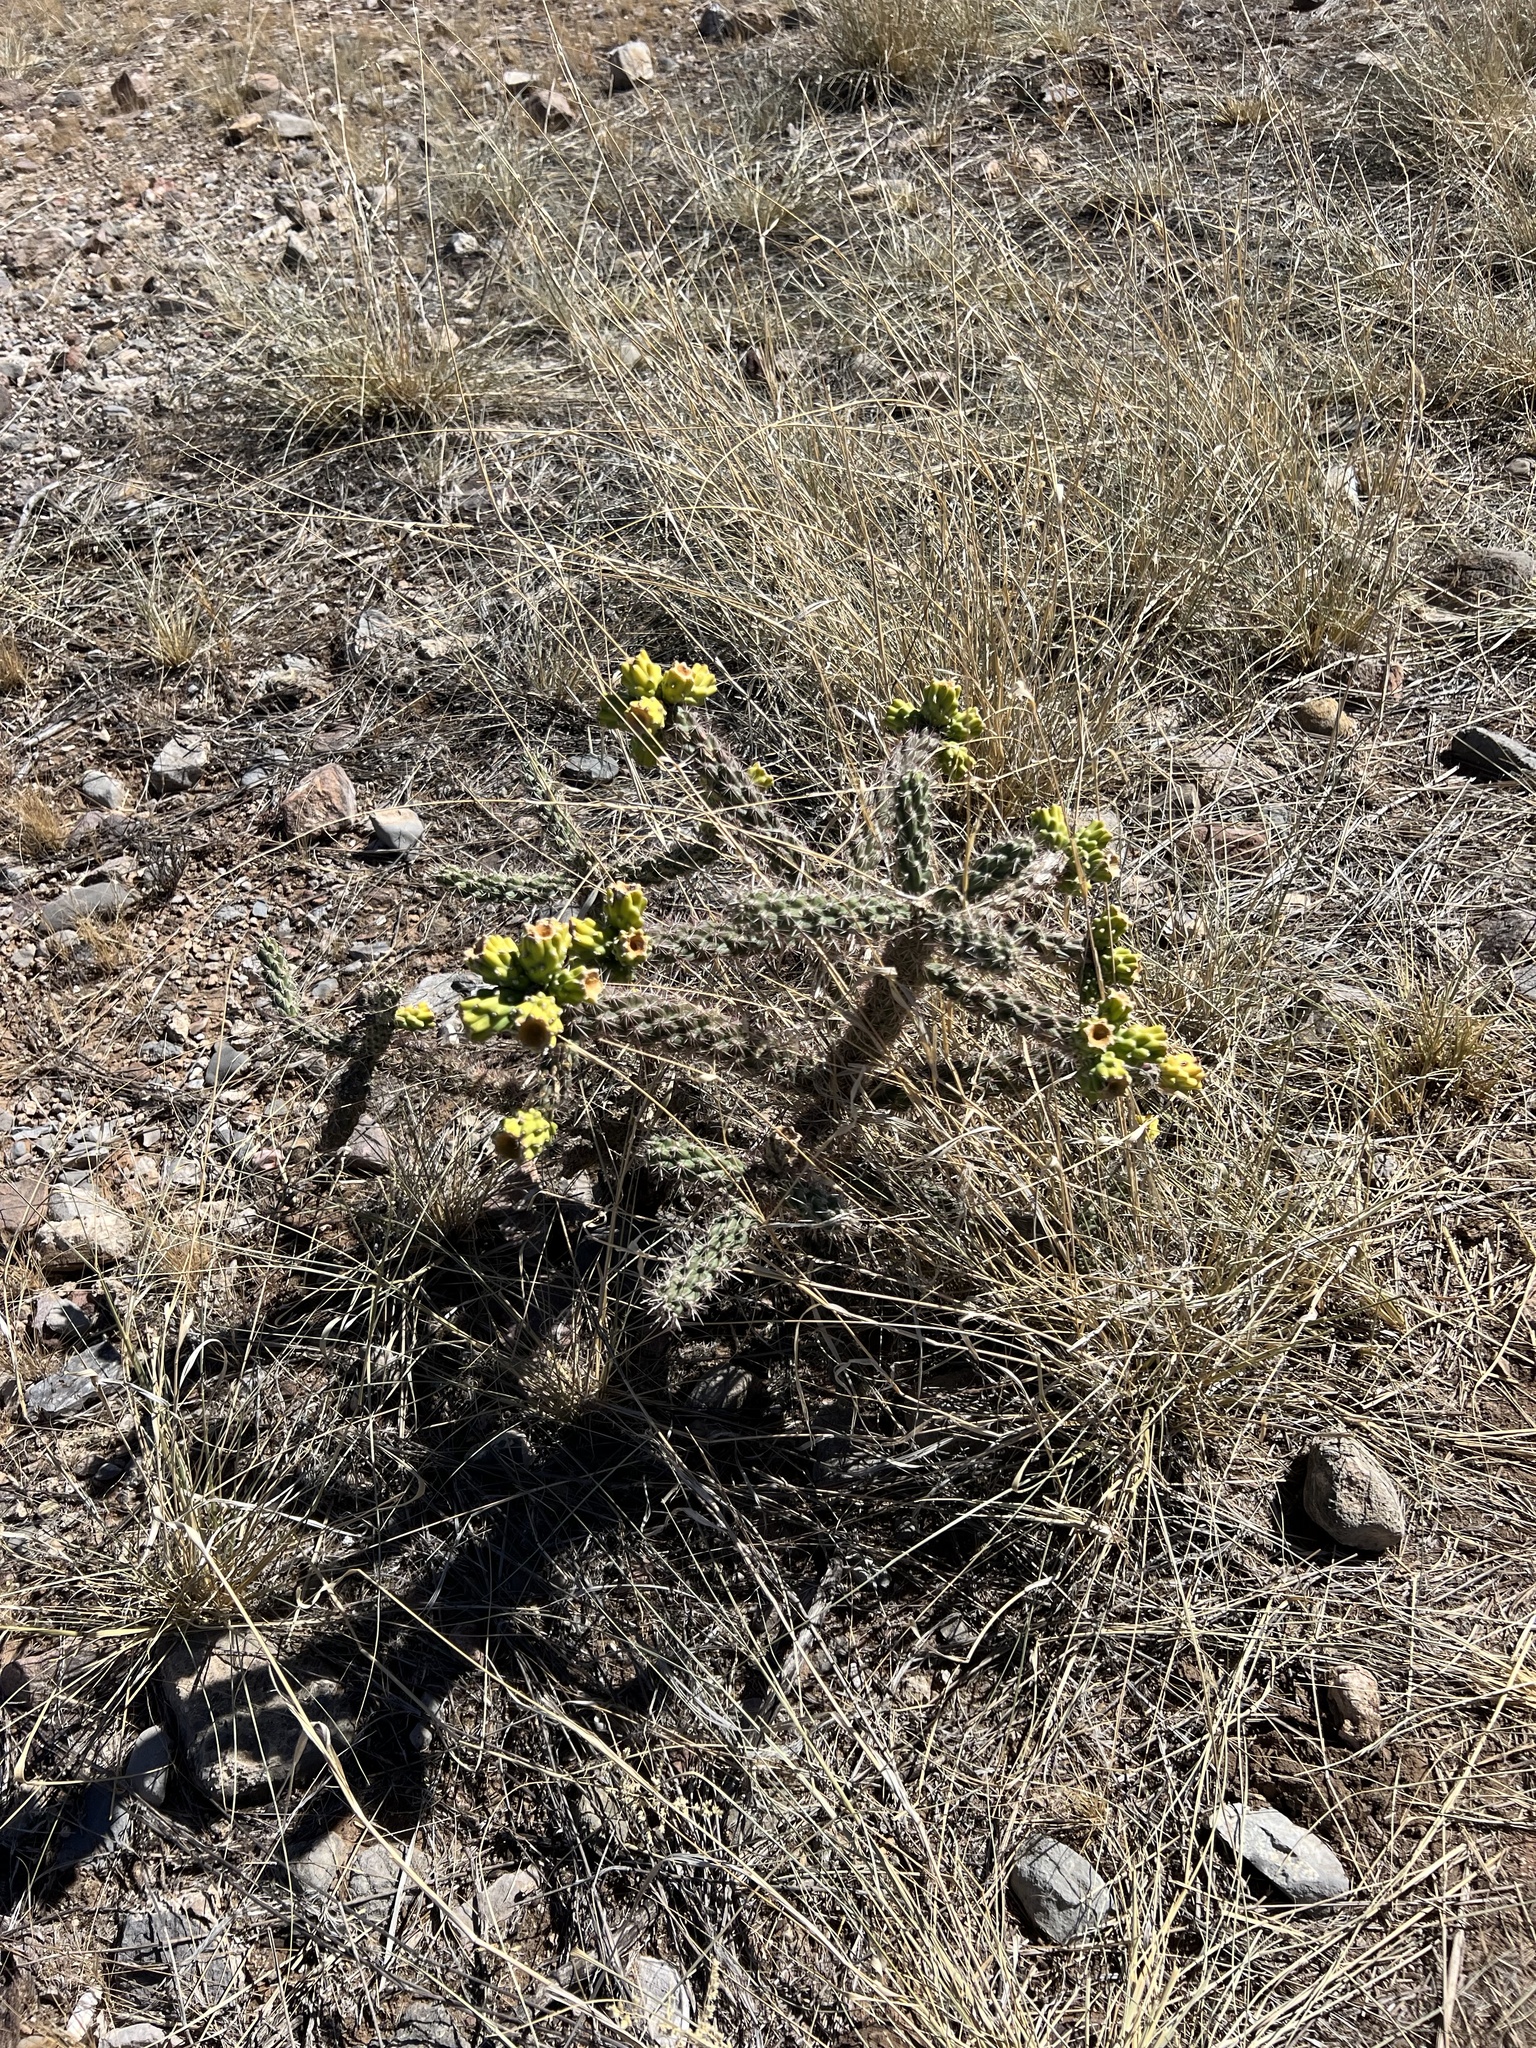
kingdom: Plantae
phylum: Tracheophyta
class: Magnoliopsida
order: Caryophyllales
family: Cactaceae
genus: Cylindropuntia
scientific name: Cylindropuntia imbricata
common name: Candelabrum cactus
